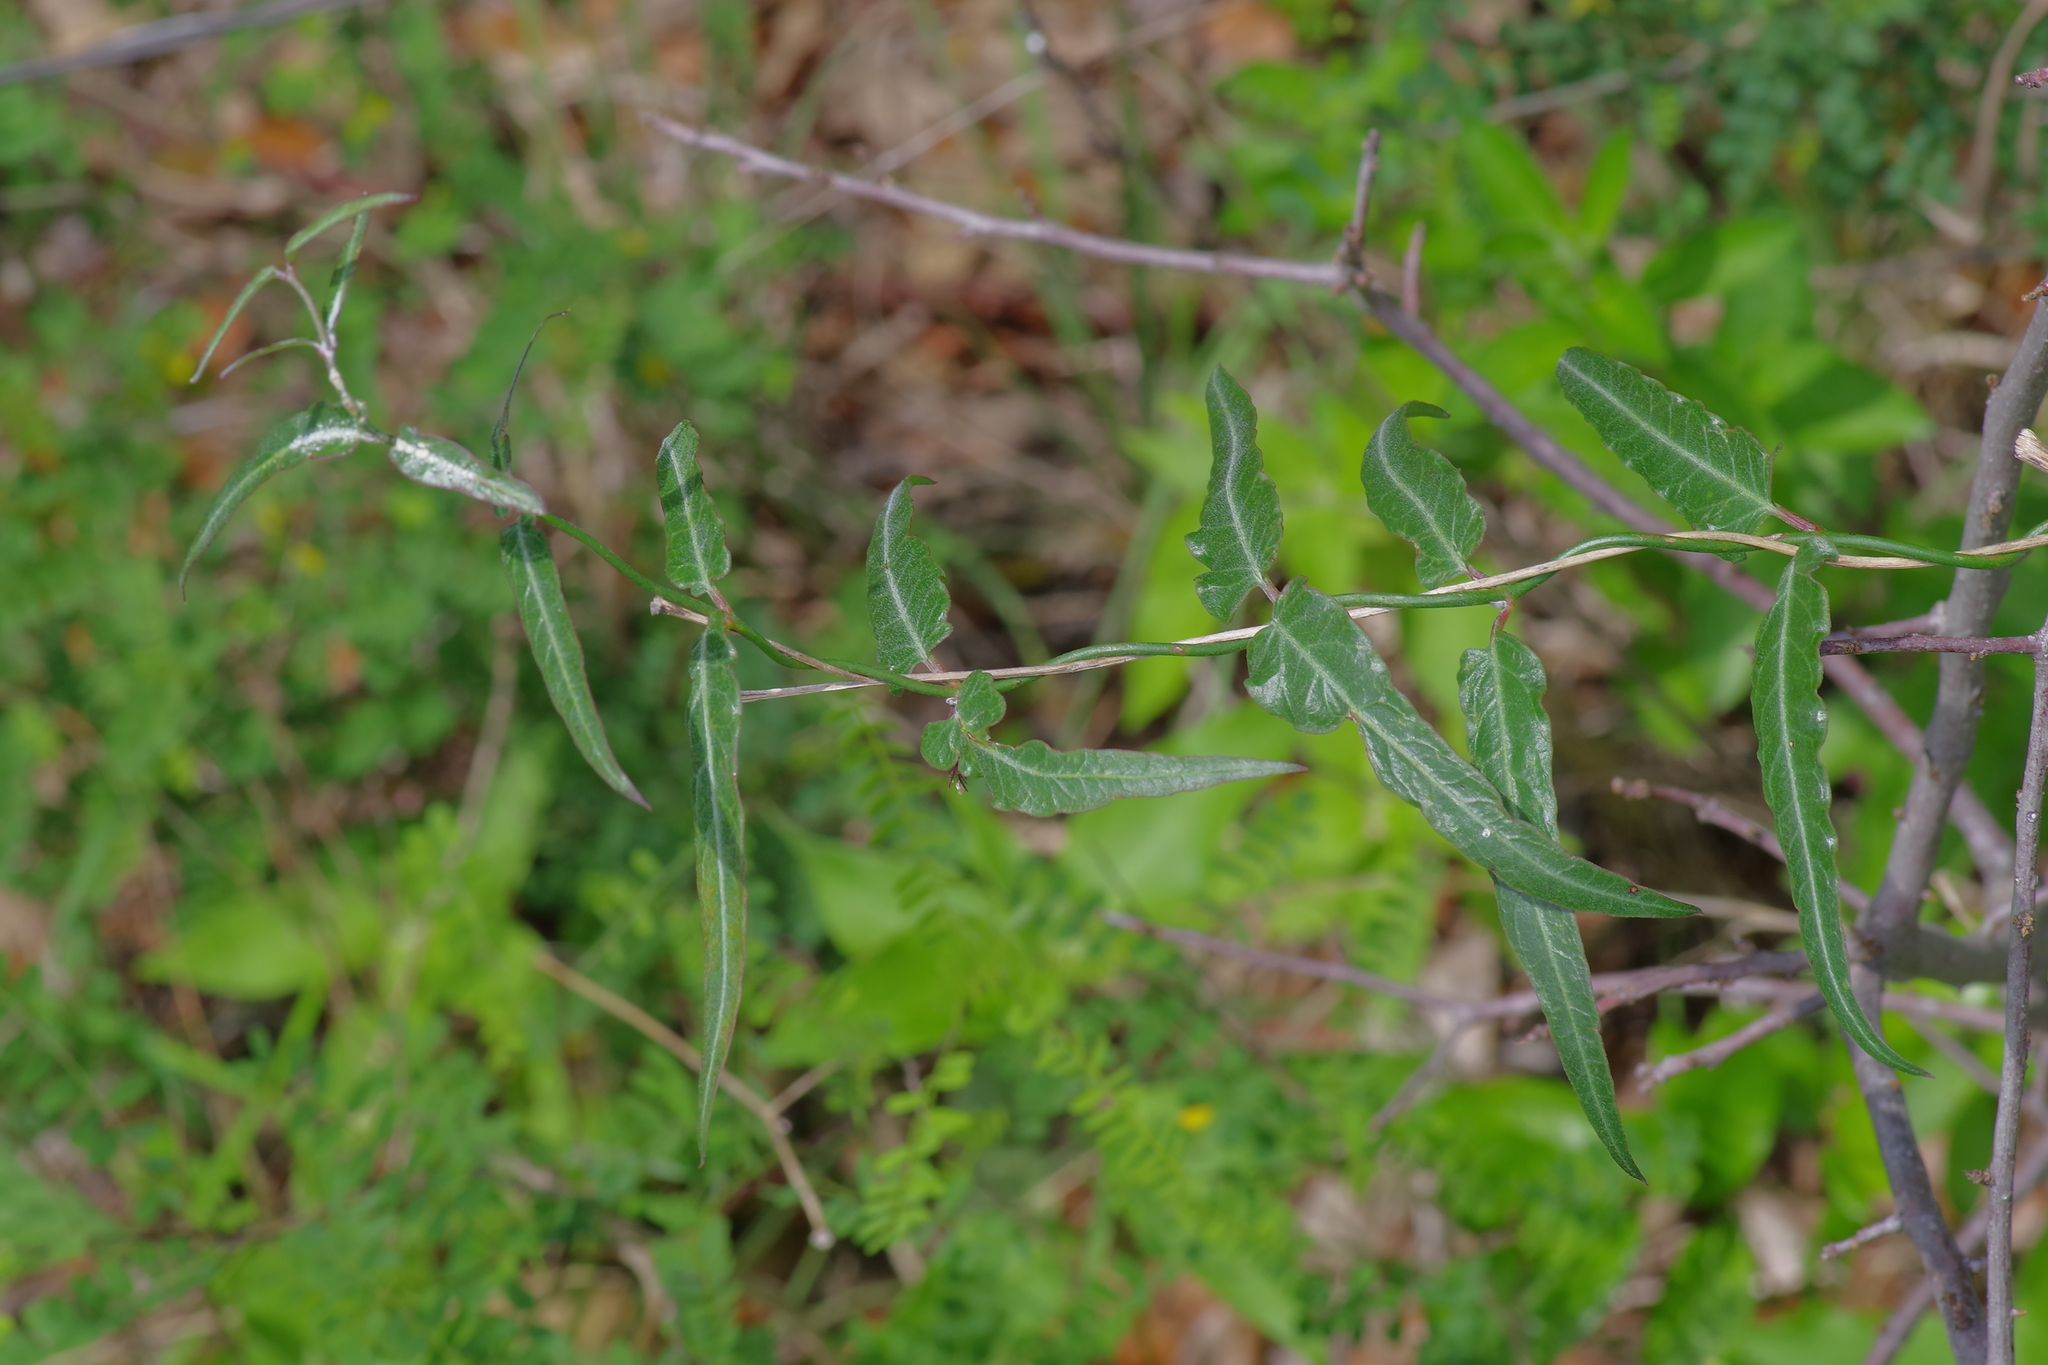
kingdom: Plantae
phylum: Tracheophyta
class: Magnoliopsida
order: Gentianales
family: Apocynaceae
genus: Funastrum
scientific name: Funastrum crispum
